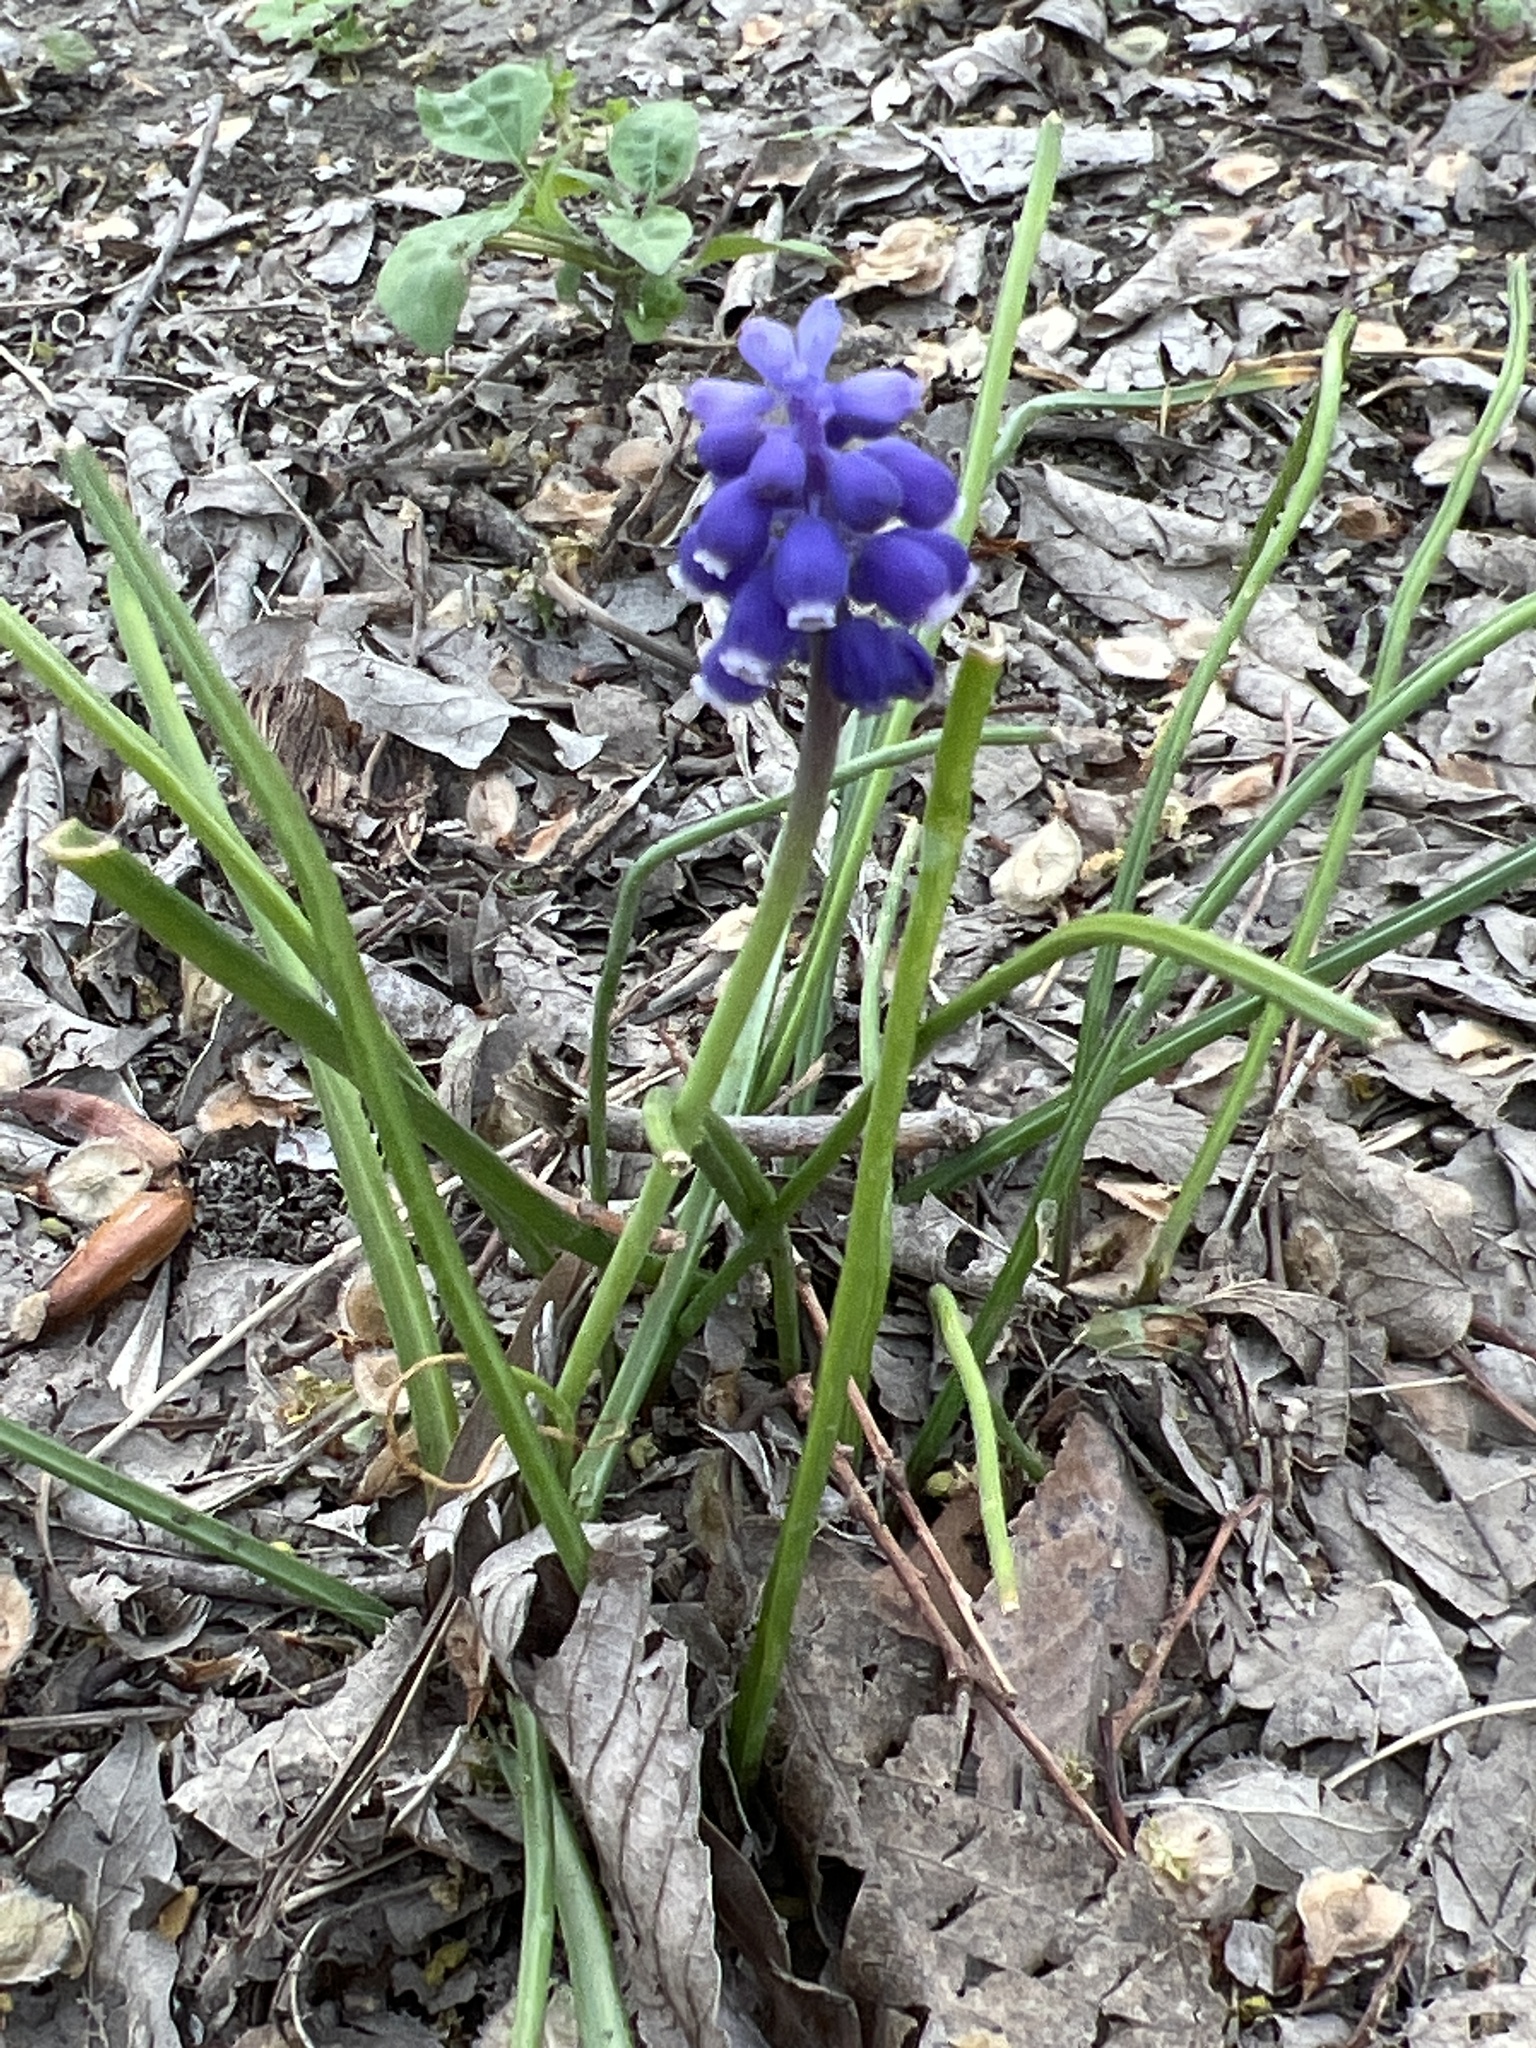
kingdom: Plantae
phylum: Tracheophyta
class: Liliopsida
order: Asparagales
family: Asparagaceae
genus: Muscari
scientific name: Muscari neglectum
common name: Grape-hyacinth
